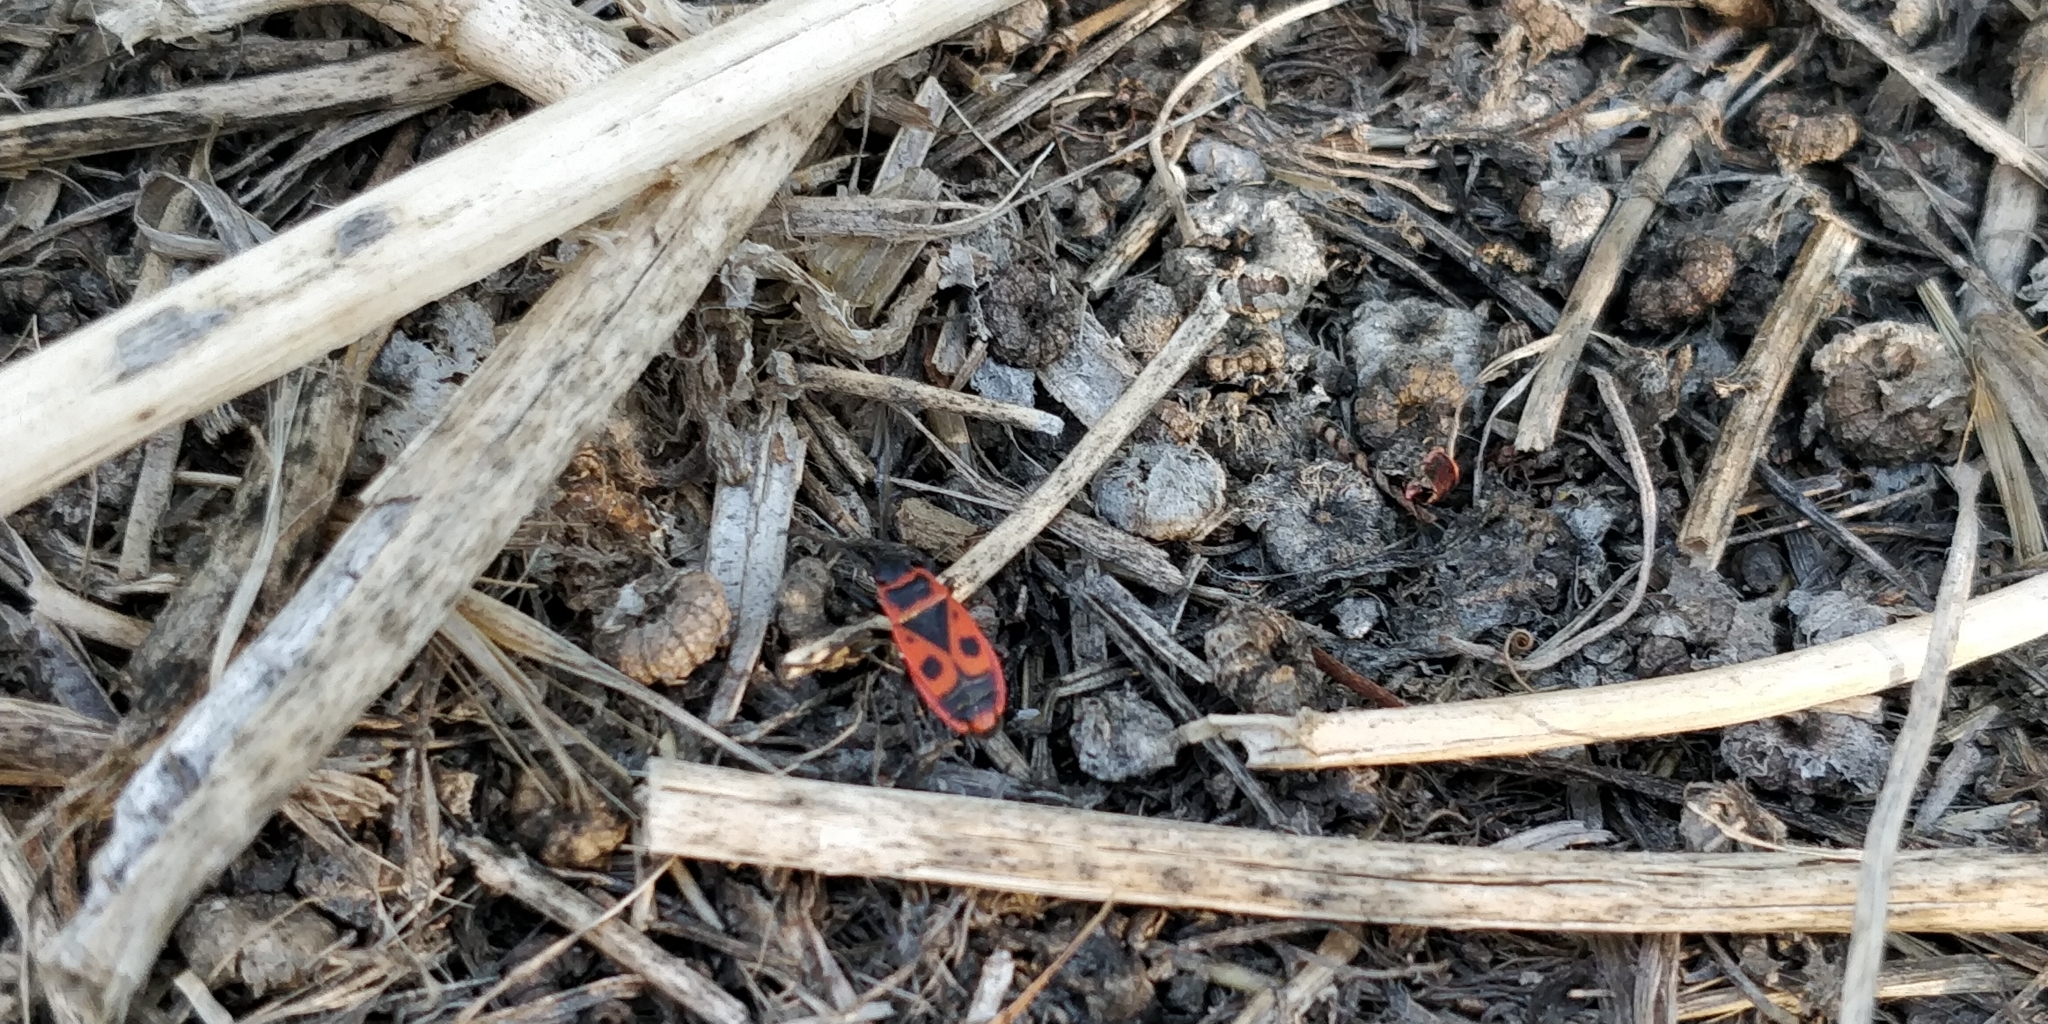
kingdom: Animalia
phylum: Arthropoda
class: Insecta
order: Hemiptera
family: Pyrrhocoridae
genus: Pyrrhocoris
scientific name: Pyrrhocoris apterus
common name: Firebug
